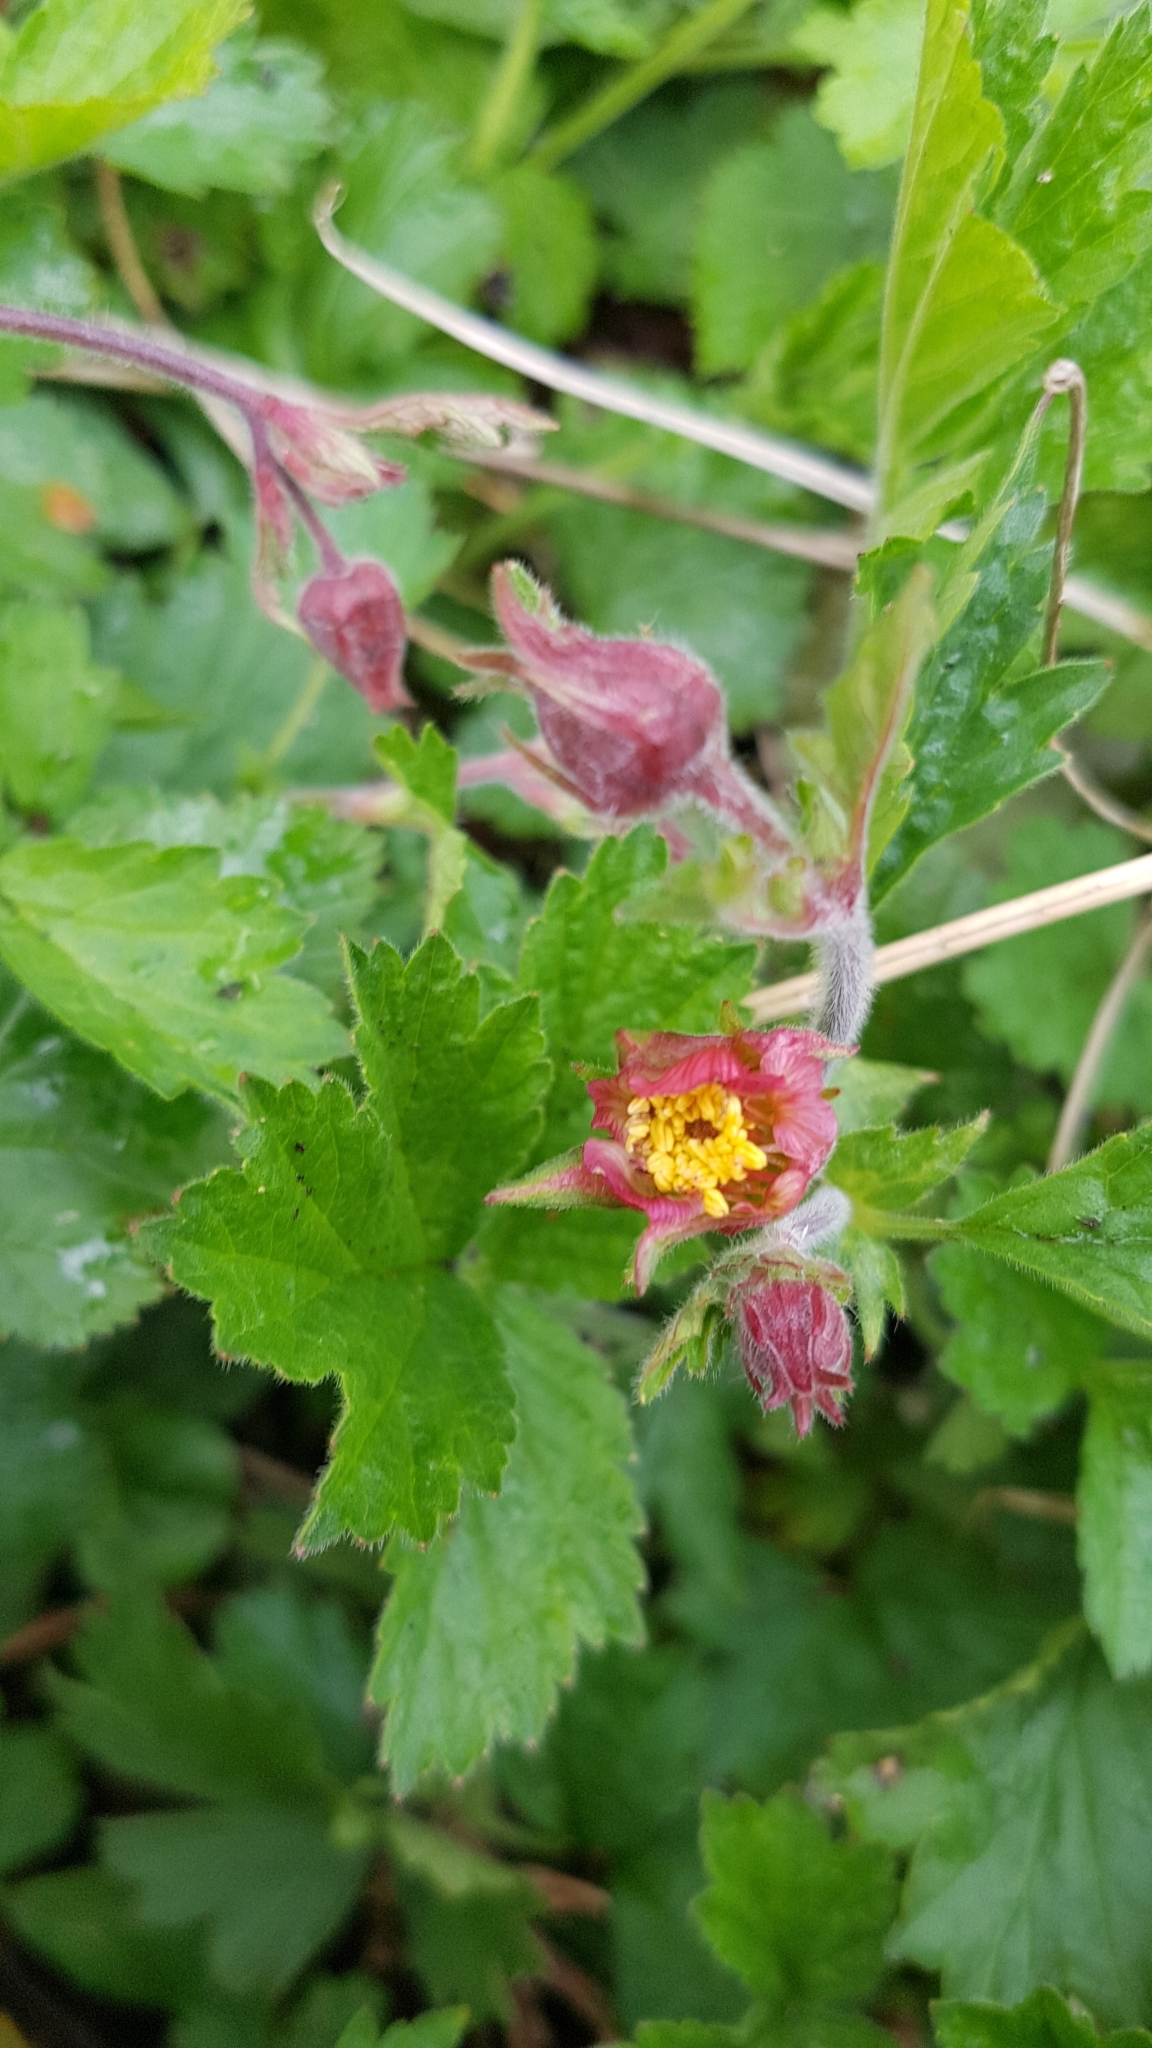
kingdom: Plantae
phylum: Tracheophyta
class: Magnoliopsida
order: Rosales
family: Rosaceae
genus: Geum
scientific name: Geum rivale
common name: Water avens
